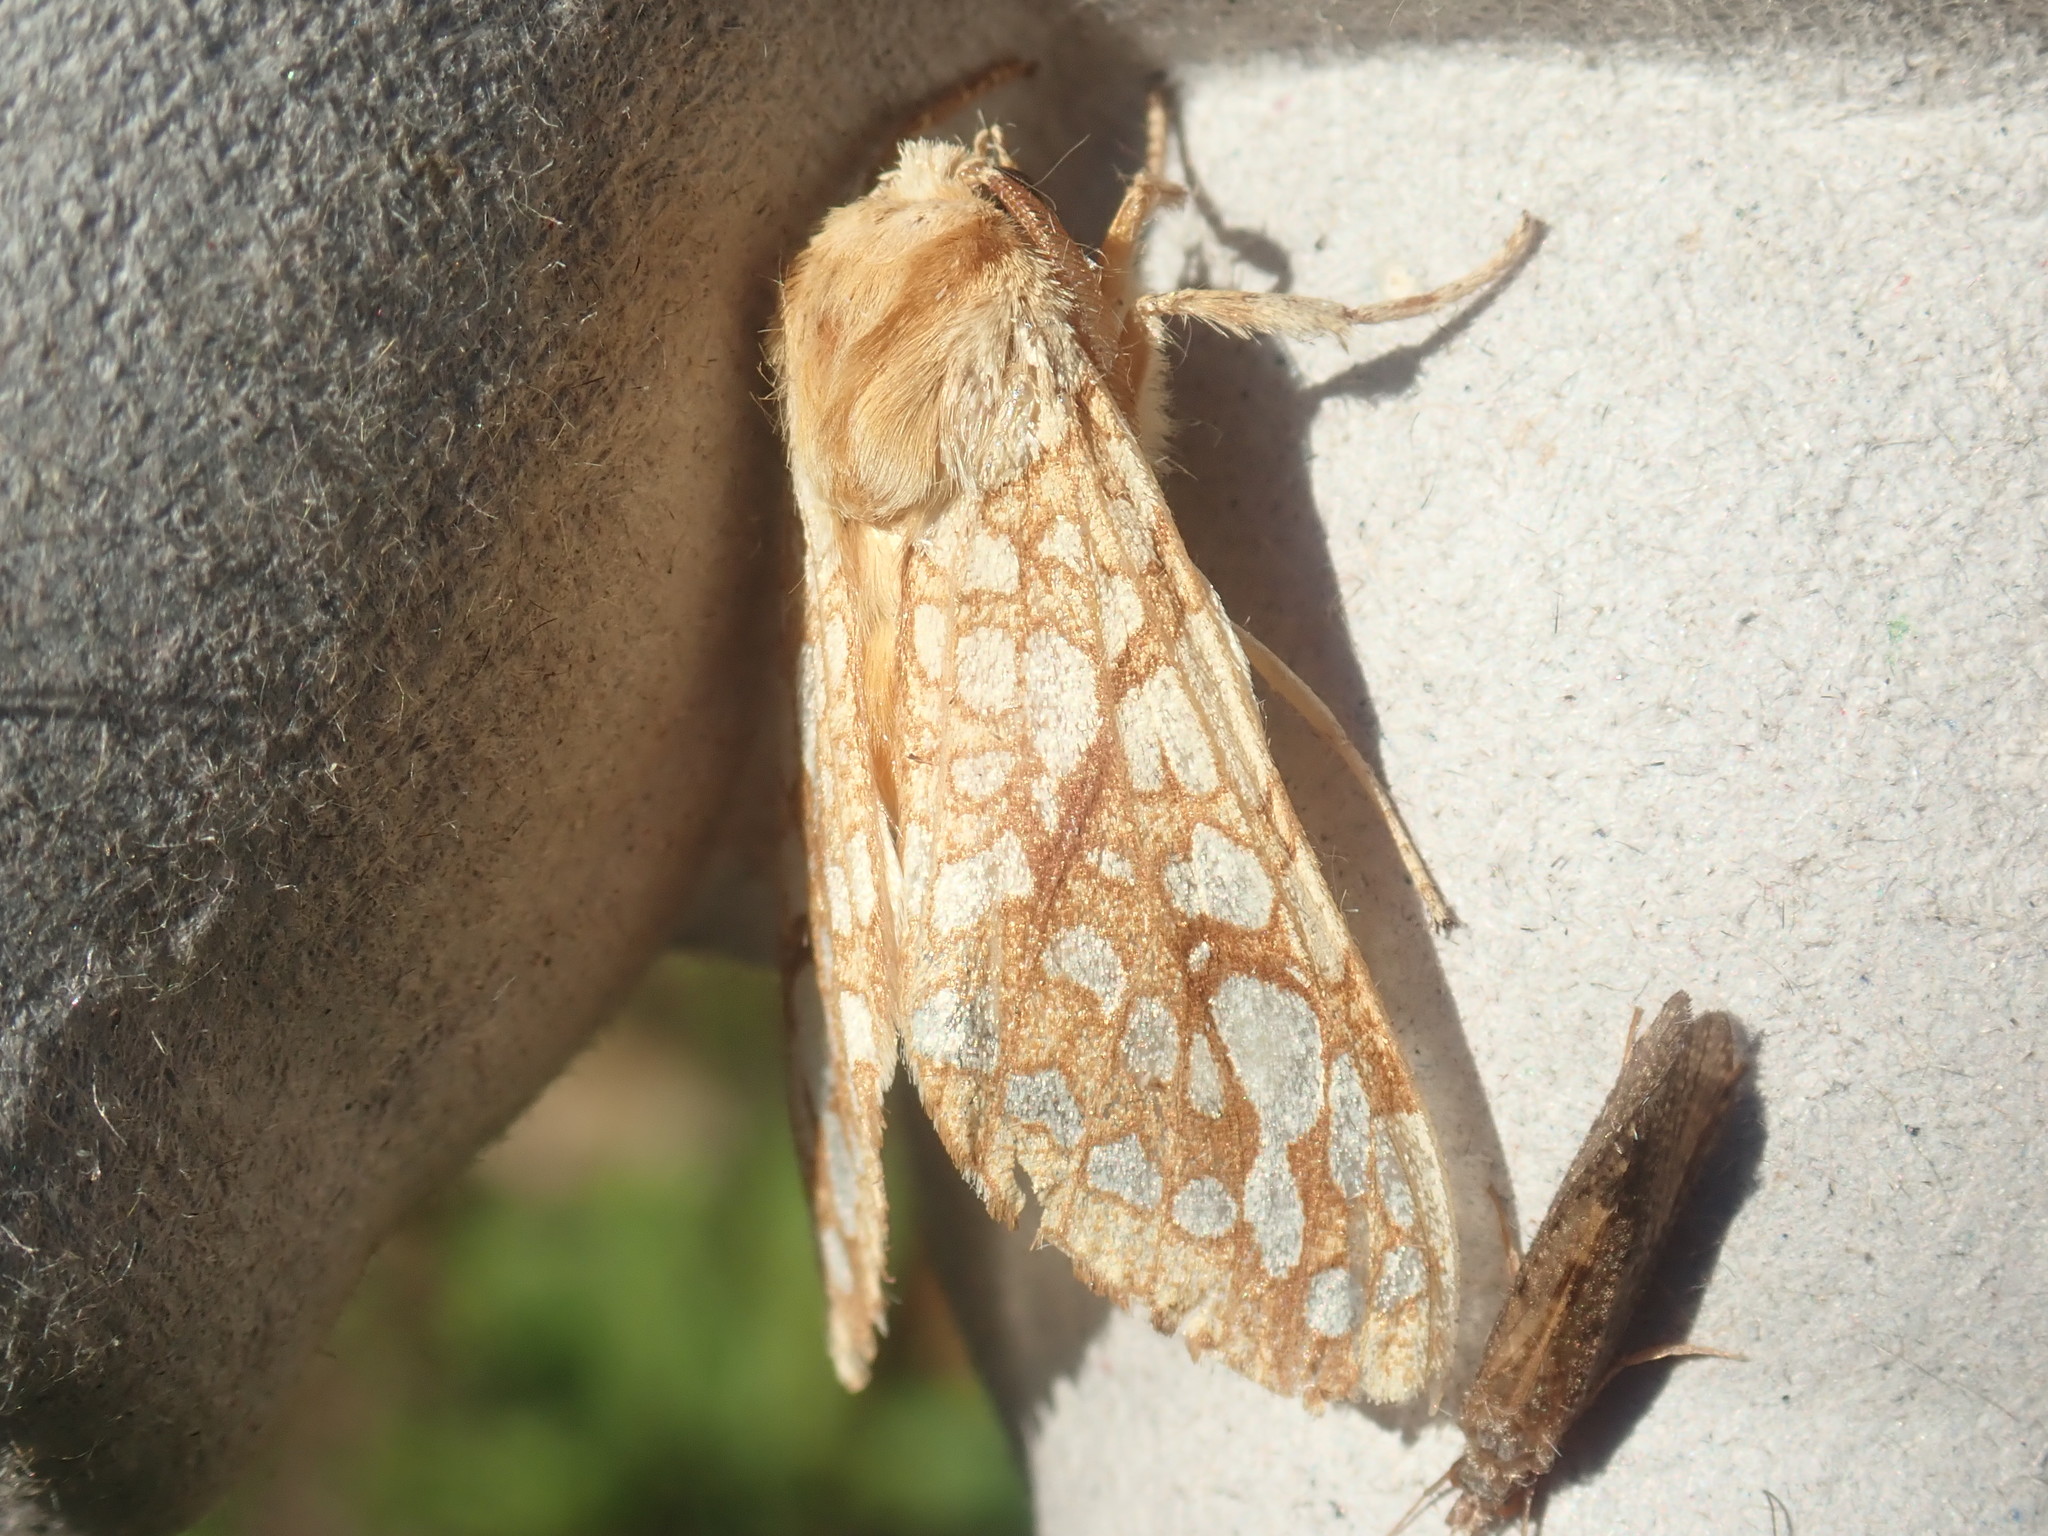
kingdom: Animalia
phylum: Arthropoda
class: Insecta
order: Lepidoptera
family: Erebidae
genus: Lophocampa
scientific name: Lophocampa caryae
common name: Hickory tussock moth
